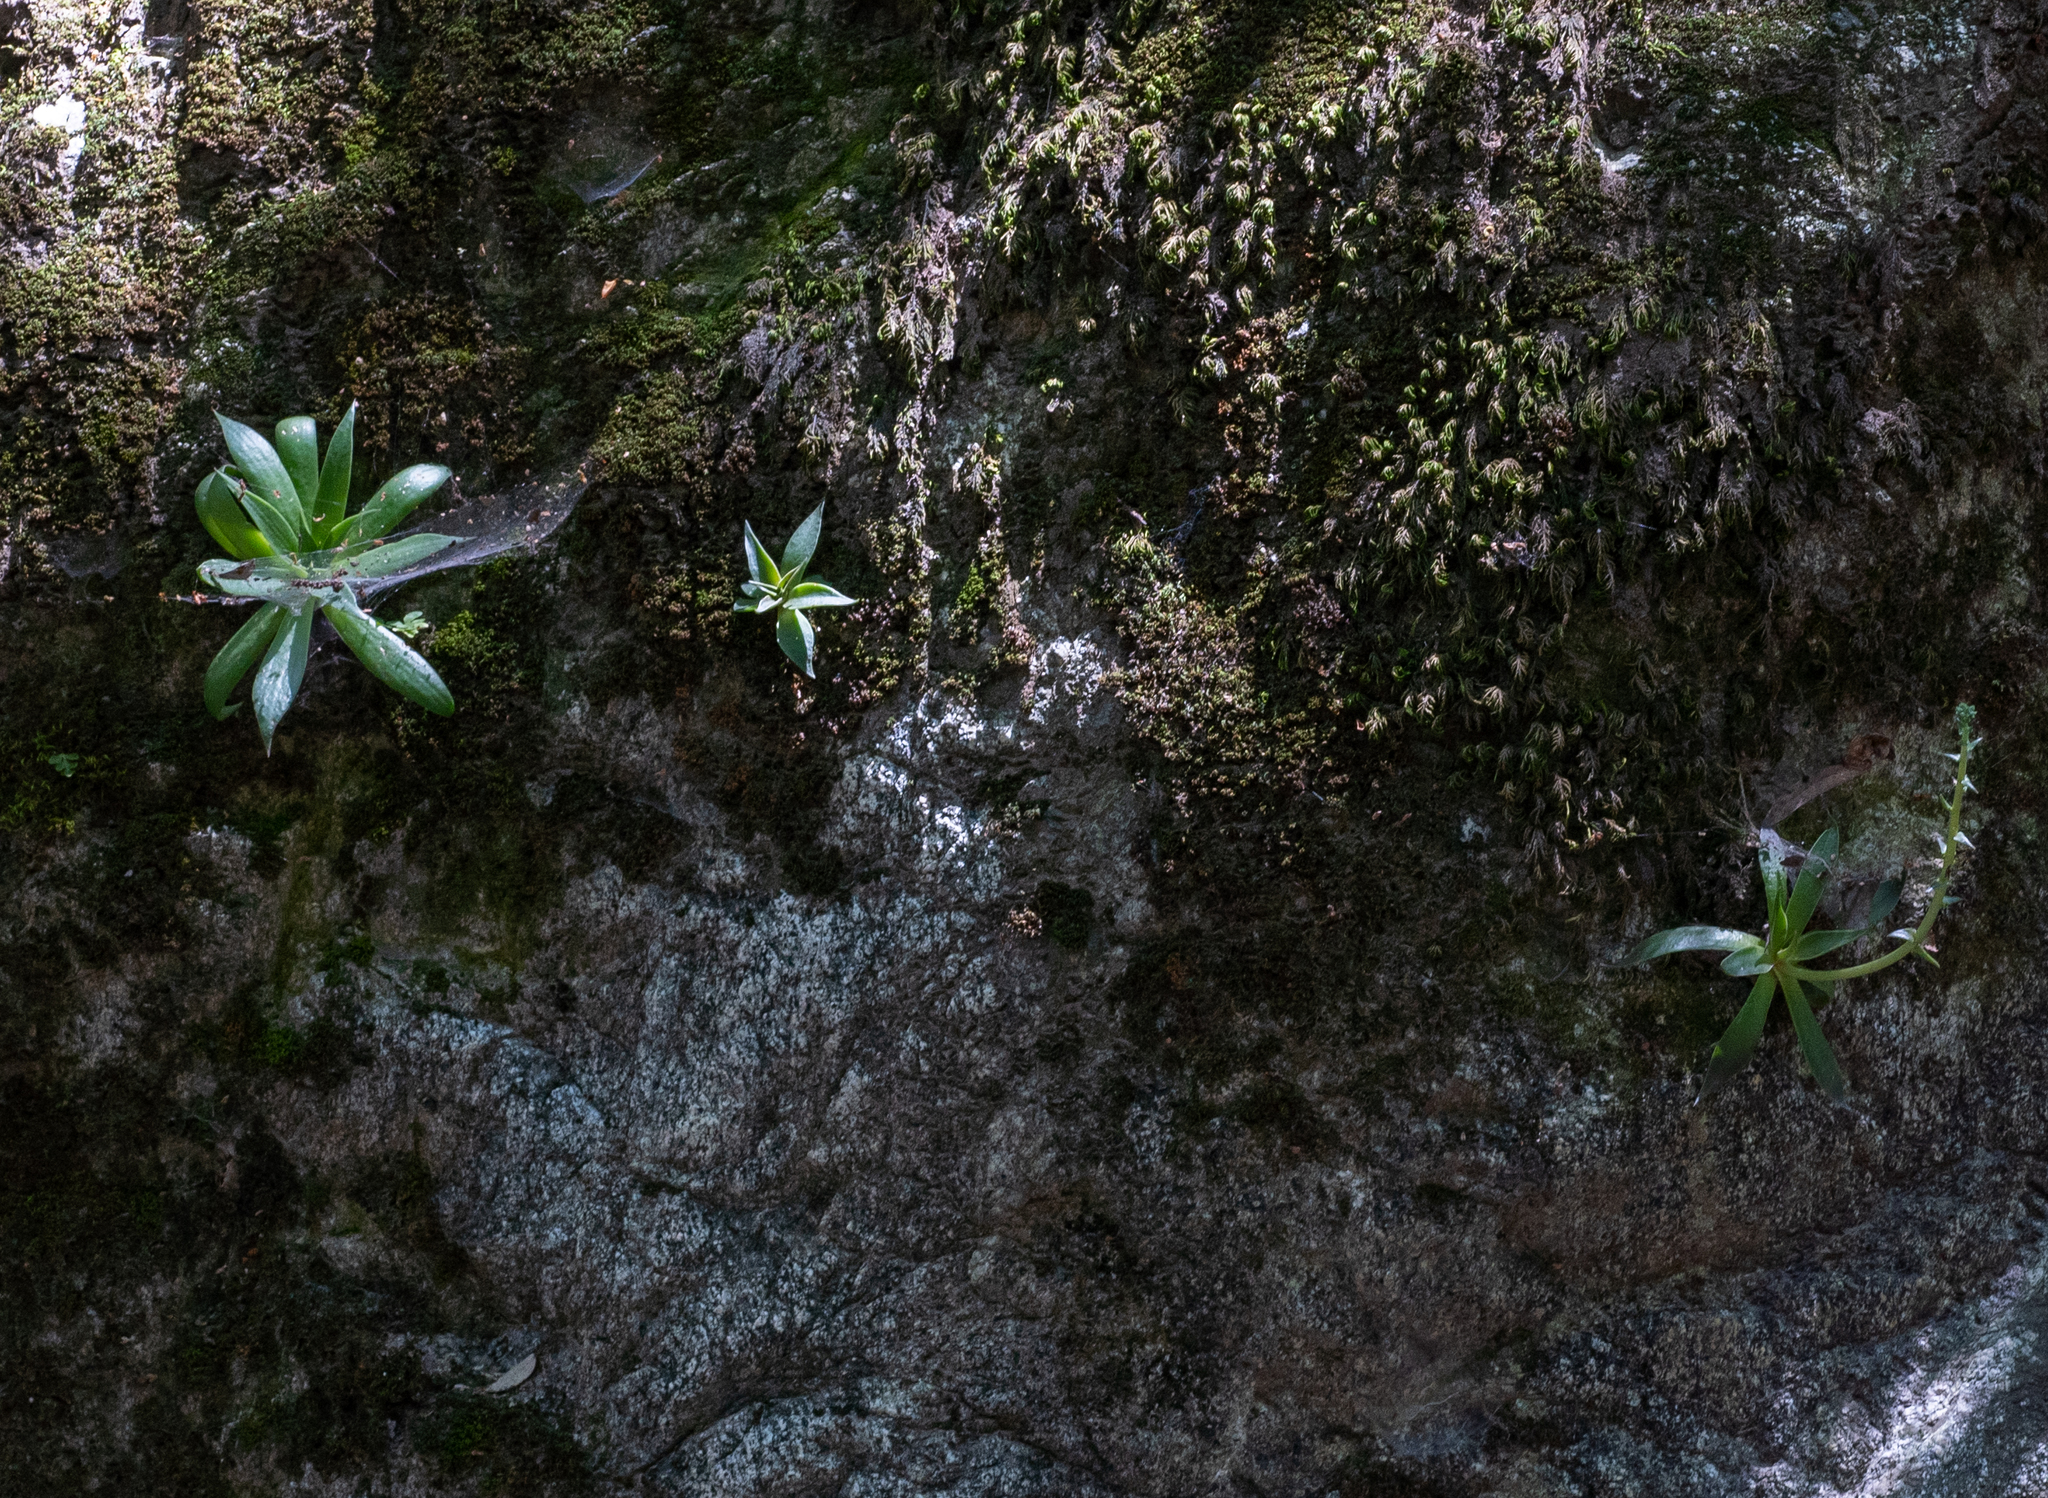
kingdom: Plantae
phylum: Tracheophyta
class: Magnoliopsida
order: Saxifragales
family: Crassulaceae
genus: Dudleya
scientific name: Dudleya lanceolata
